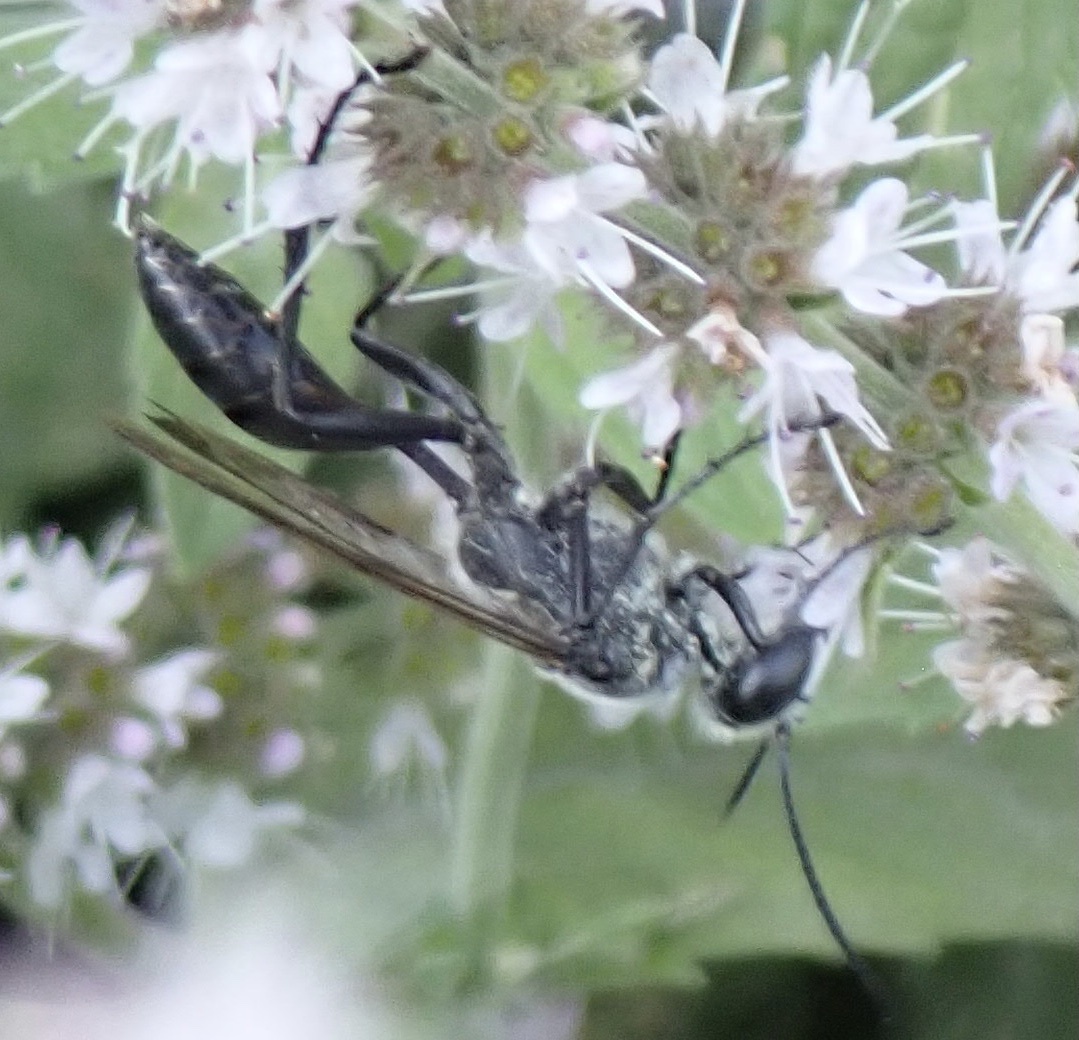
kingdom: Animalia
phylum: Arthropoda
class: Insecta
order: Hymenoptera
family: Sphecidae
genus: Sphex
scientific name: Sphex pruinosus
